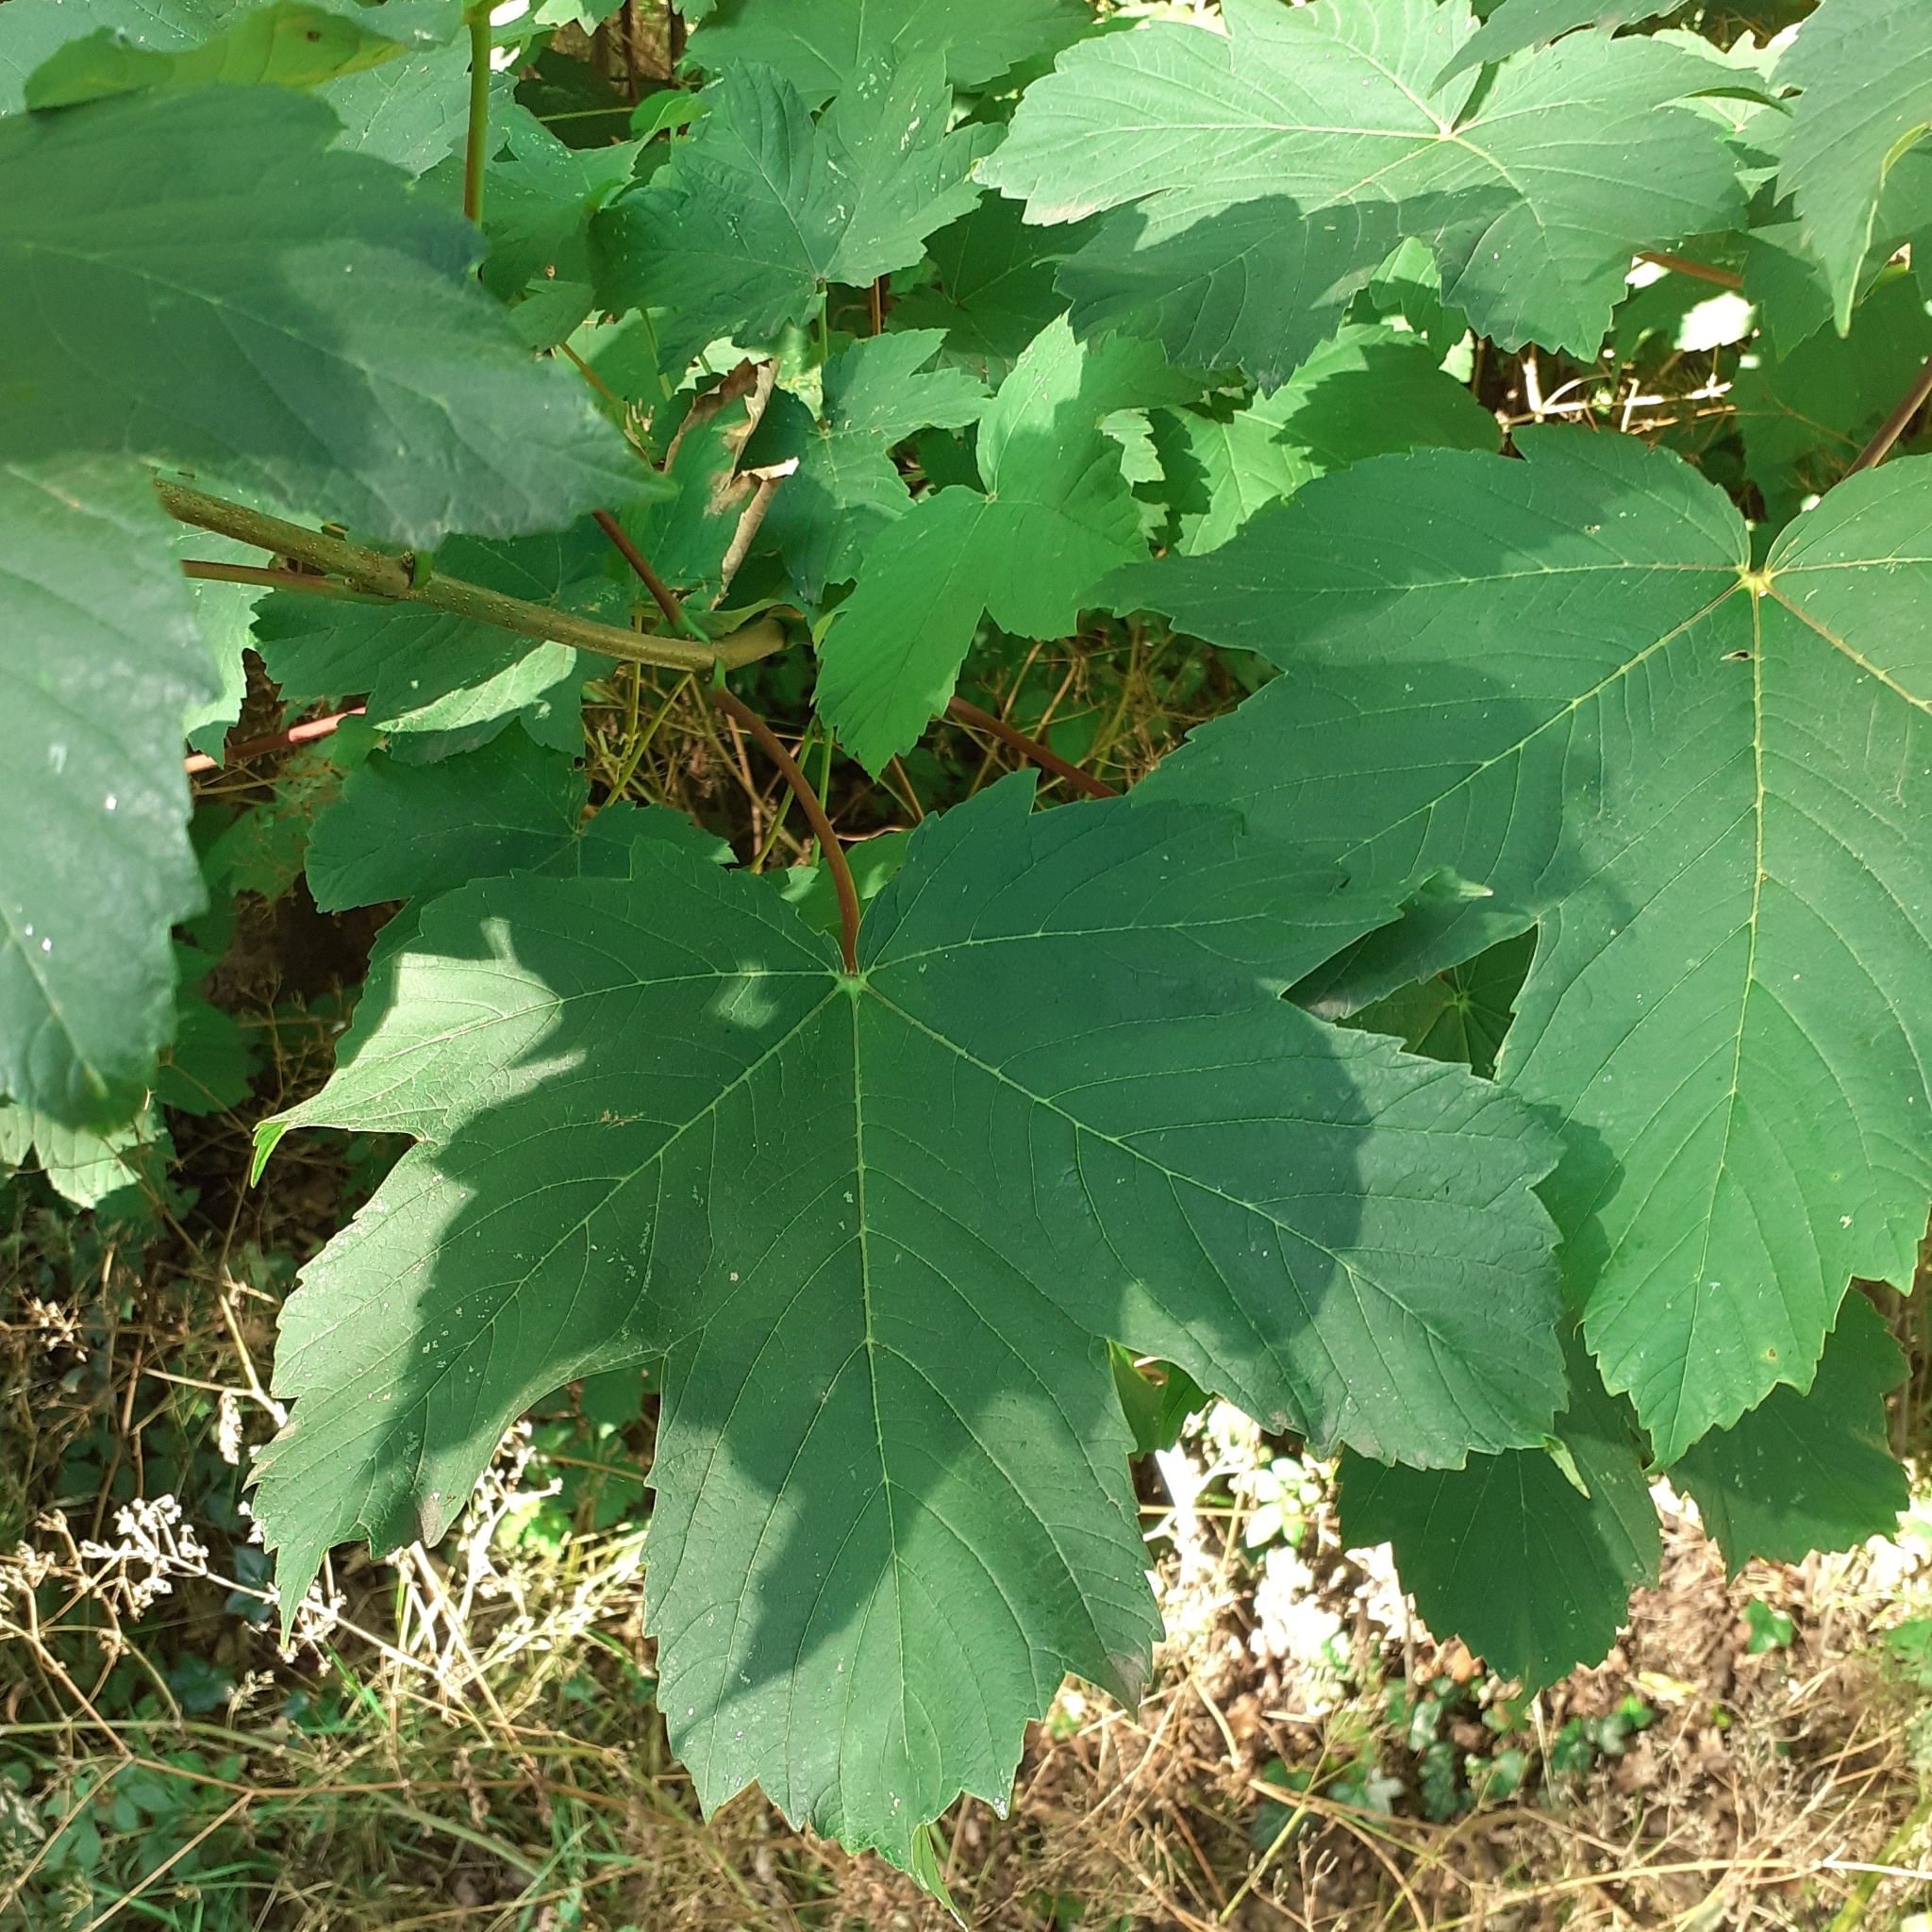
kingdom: Plantae
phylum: Tracheophyta
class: Magnoliopsida
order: Sapindales
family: Sapindaceae
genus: Acer
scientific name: Acer pseudoplatanus
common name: Sycamore
